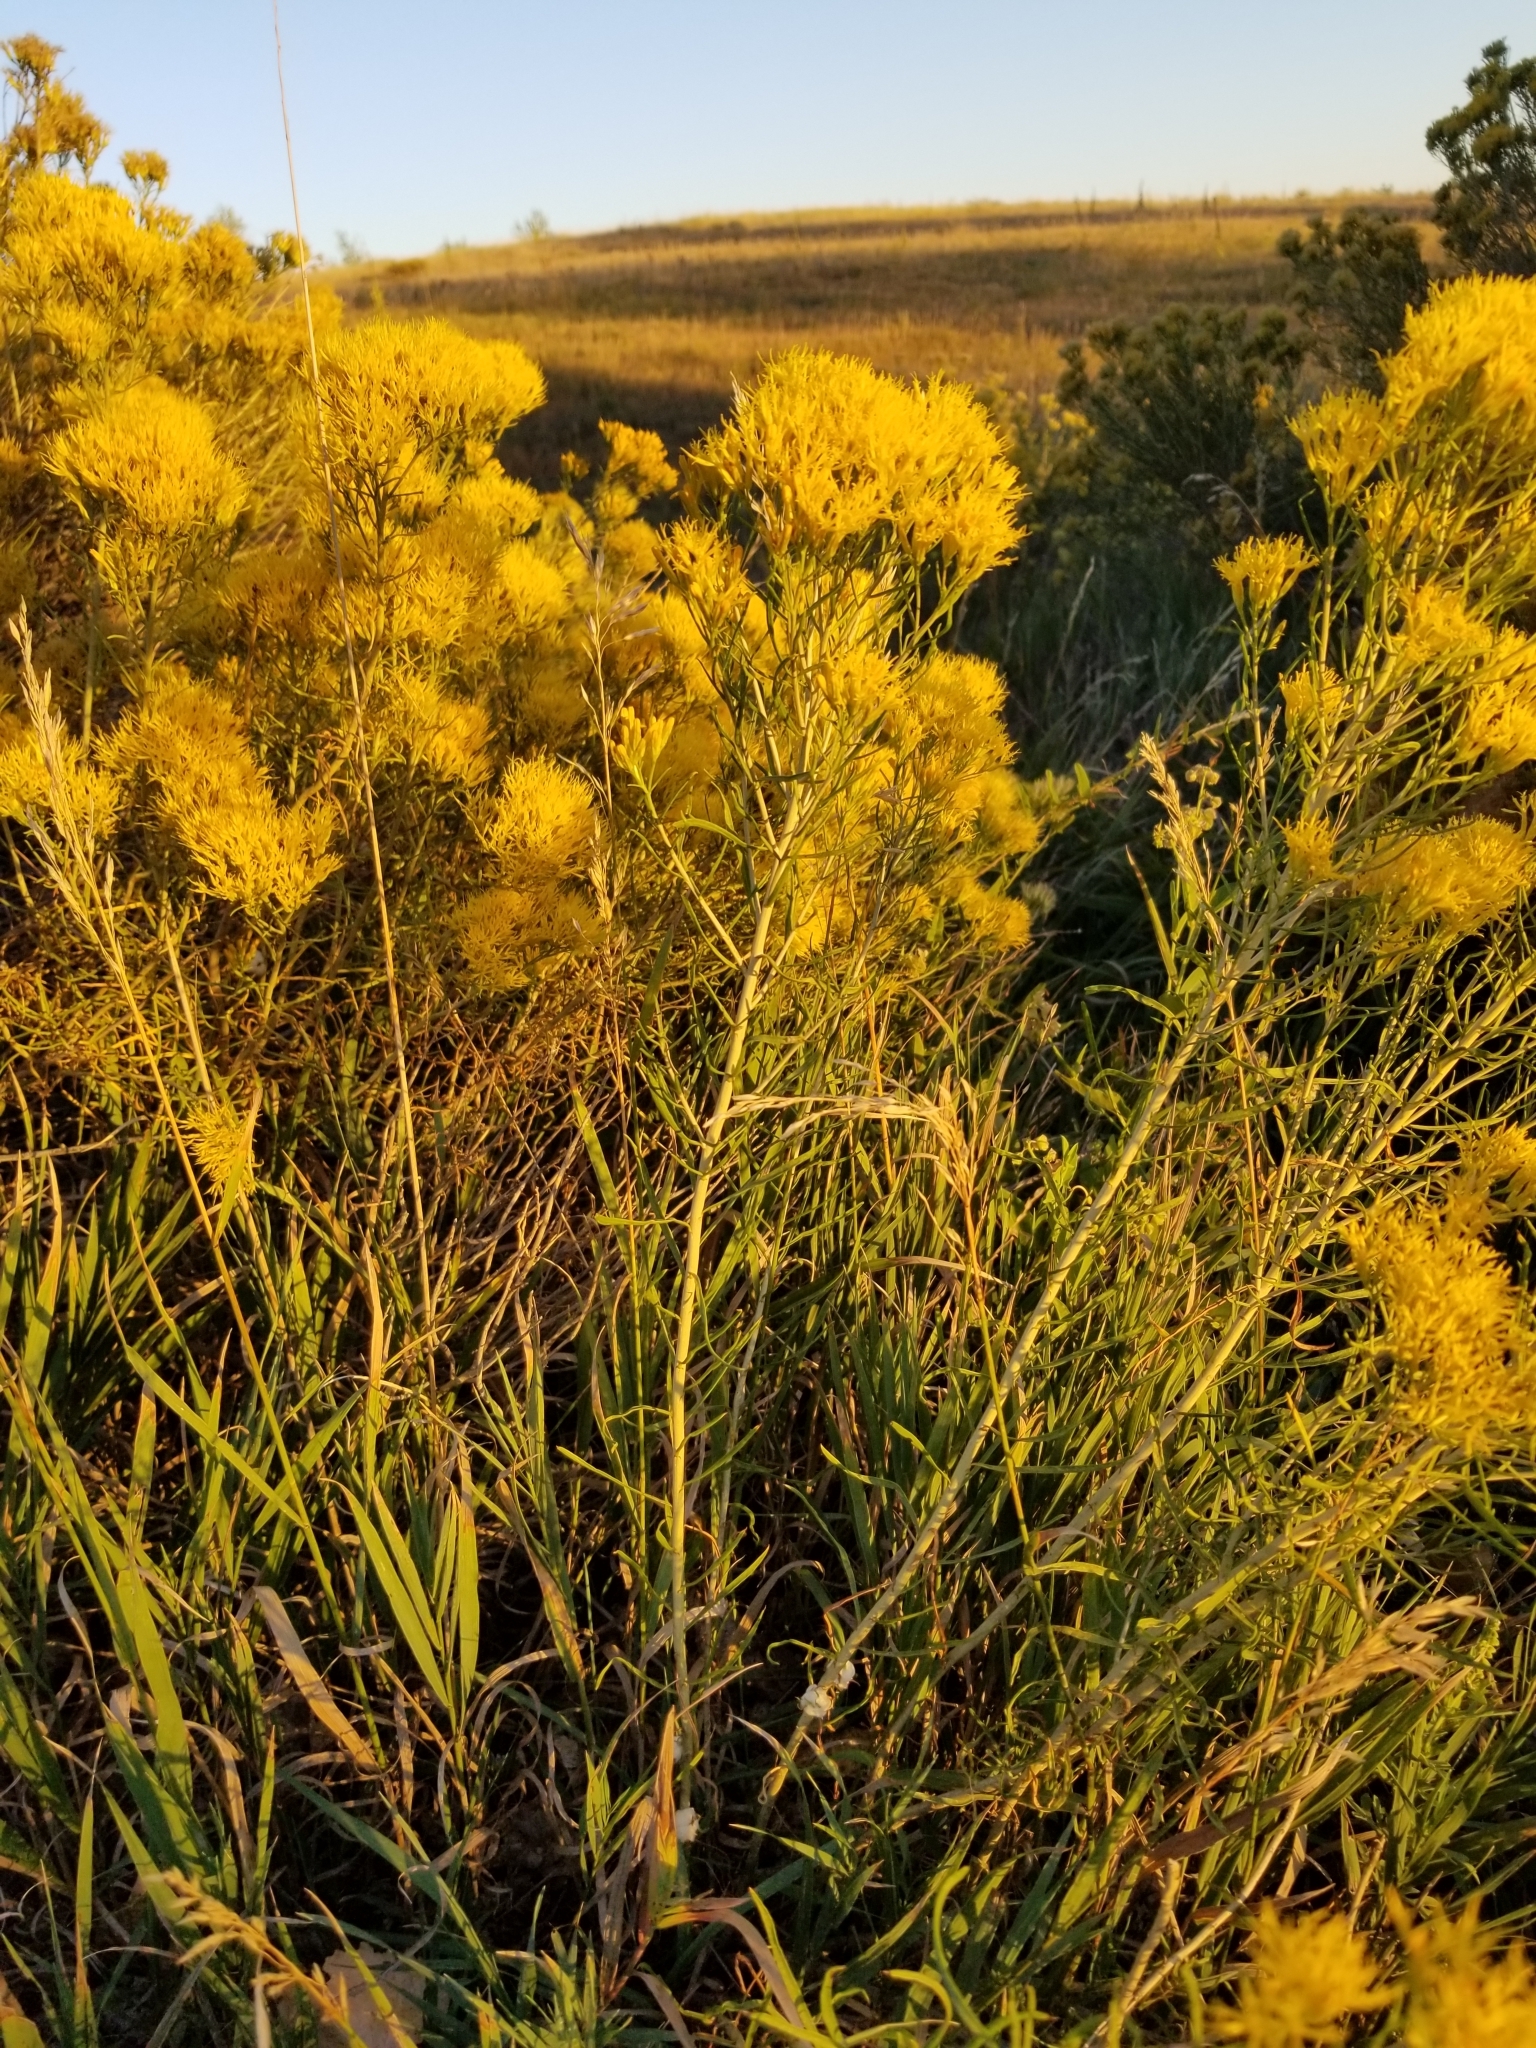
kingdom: Plantae
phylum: Tracheophyta
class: Magnoliopsida
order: Asterales
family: Asteraceae
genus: Ericameria
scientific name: Ericameria nauseosa
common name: Rubber rabbitbrush
